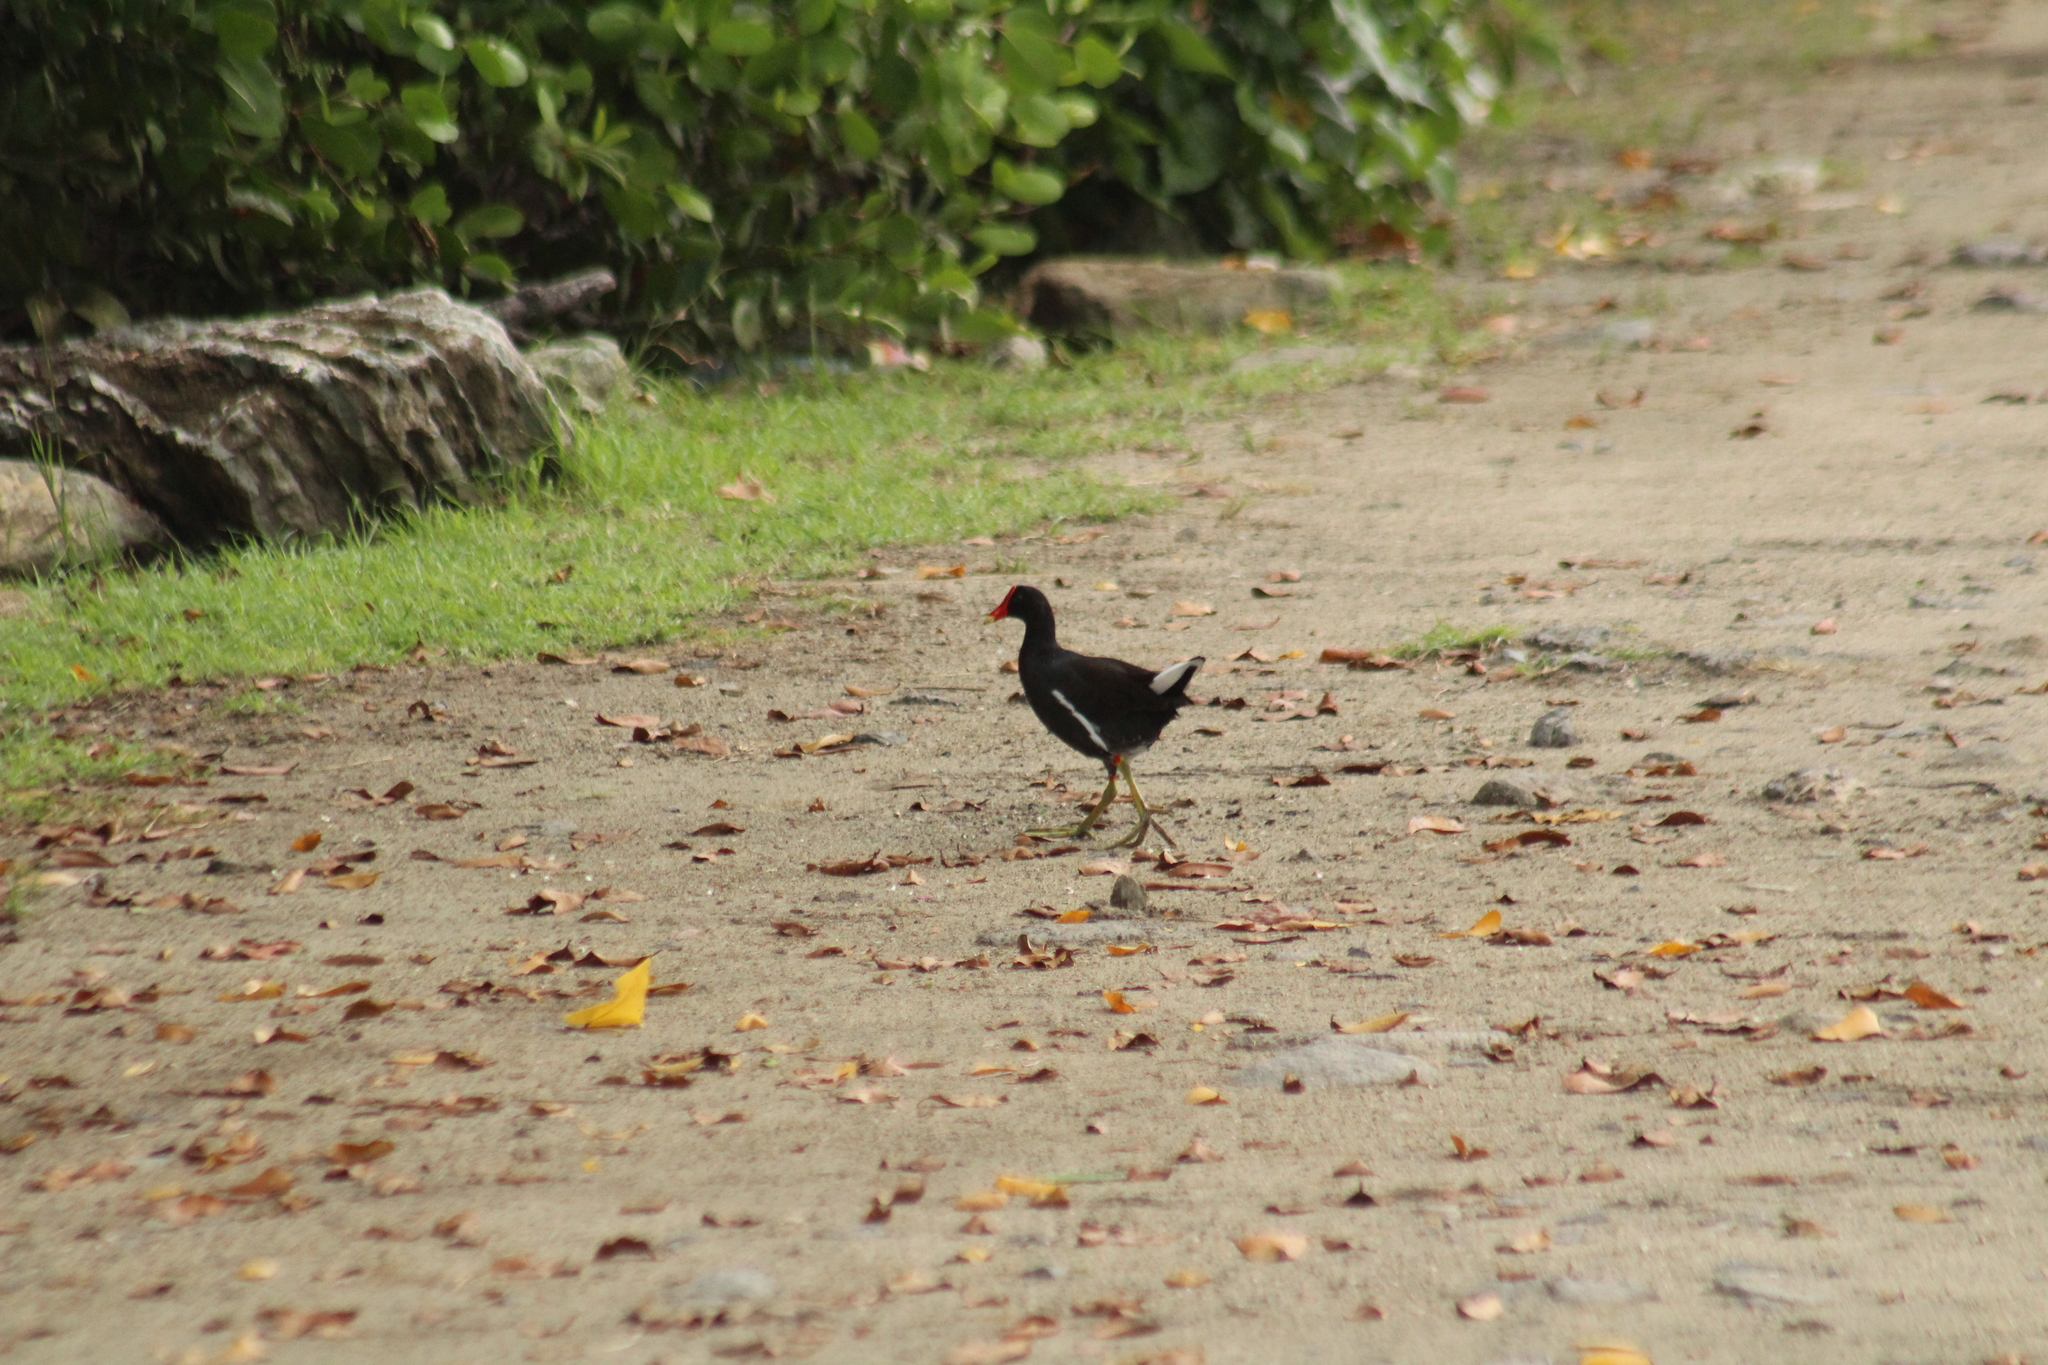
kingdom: Animalia
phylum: Chordata
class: Aves
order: Gruiformes
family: Rallidae
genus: Gallinula
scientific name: Gallinula chloropus
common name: Common moorhen
